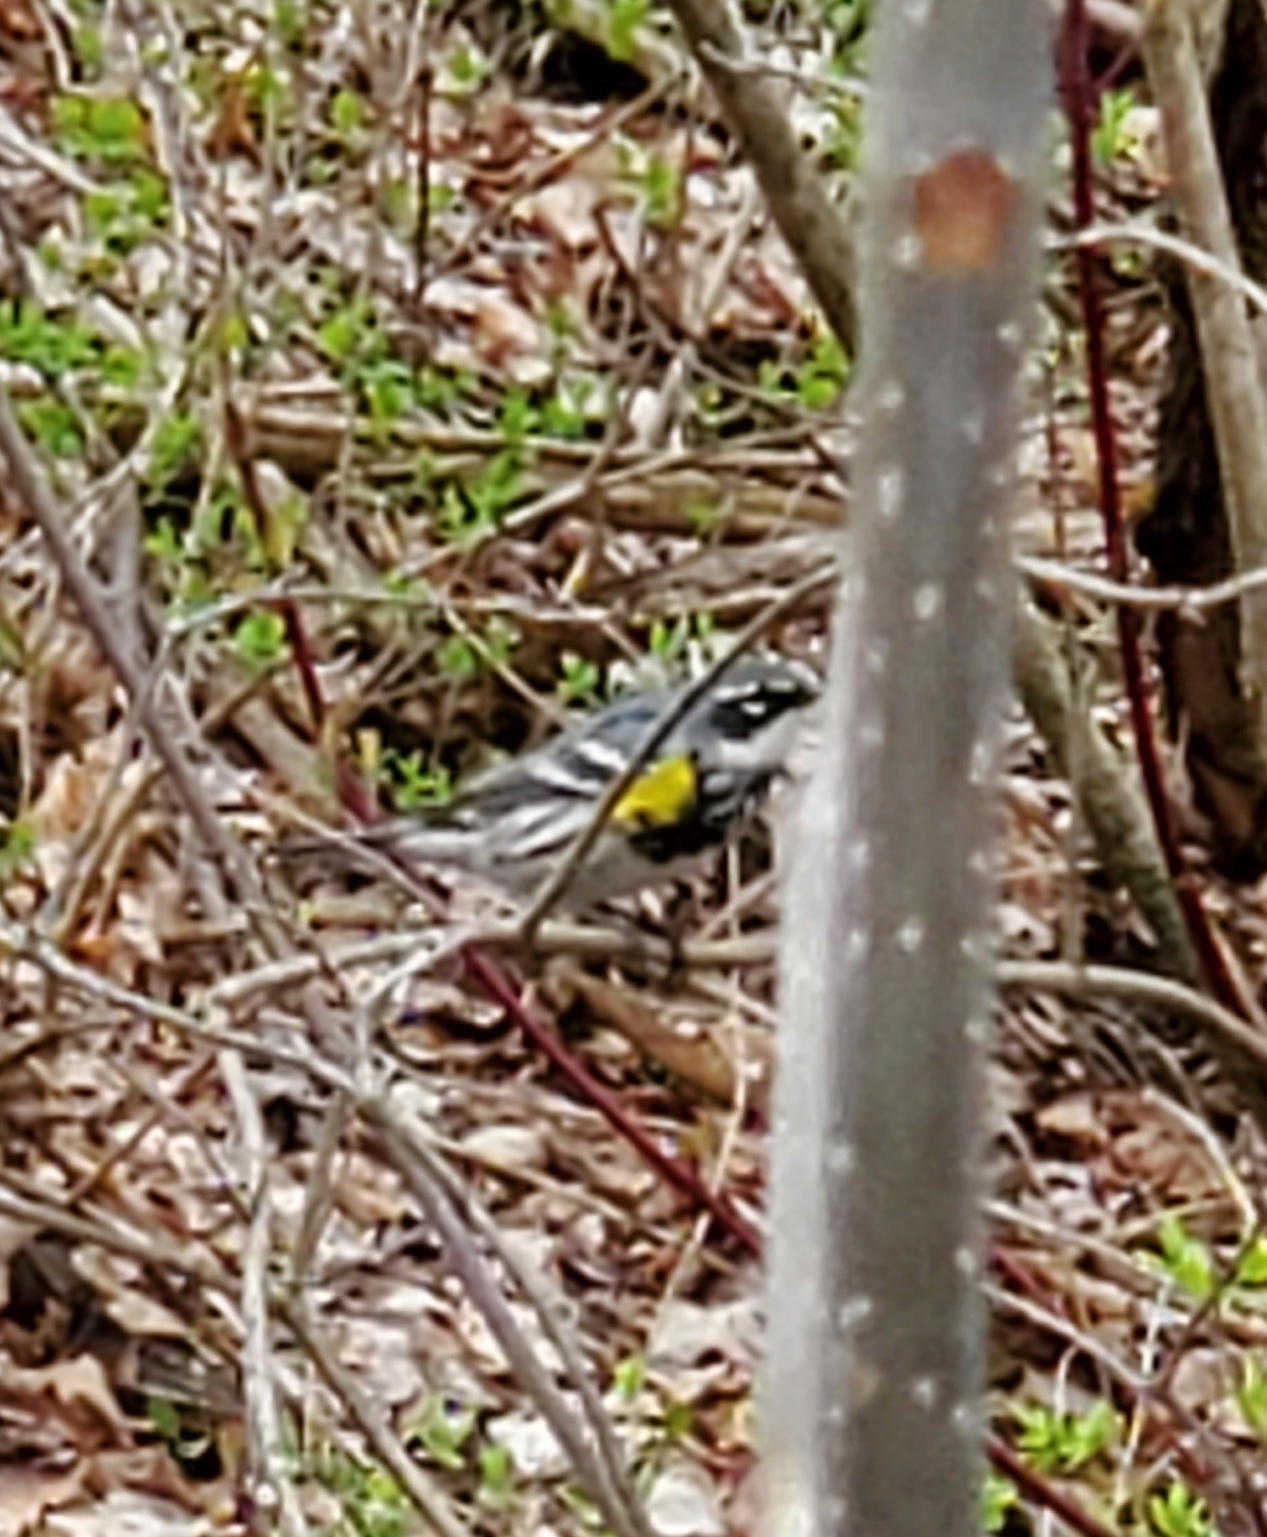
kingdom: Animalia
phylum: Chordata
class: Aves
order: Passeriformes
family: Parulidae
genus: Setophaga
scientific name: Setophaga coronata
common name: Myrtle warbler
